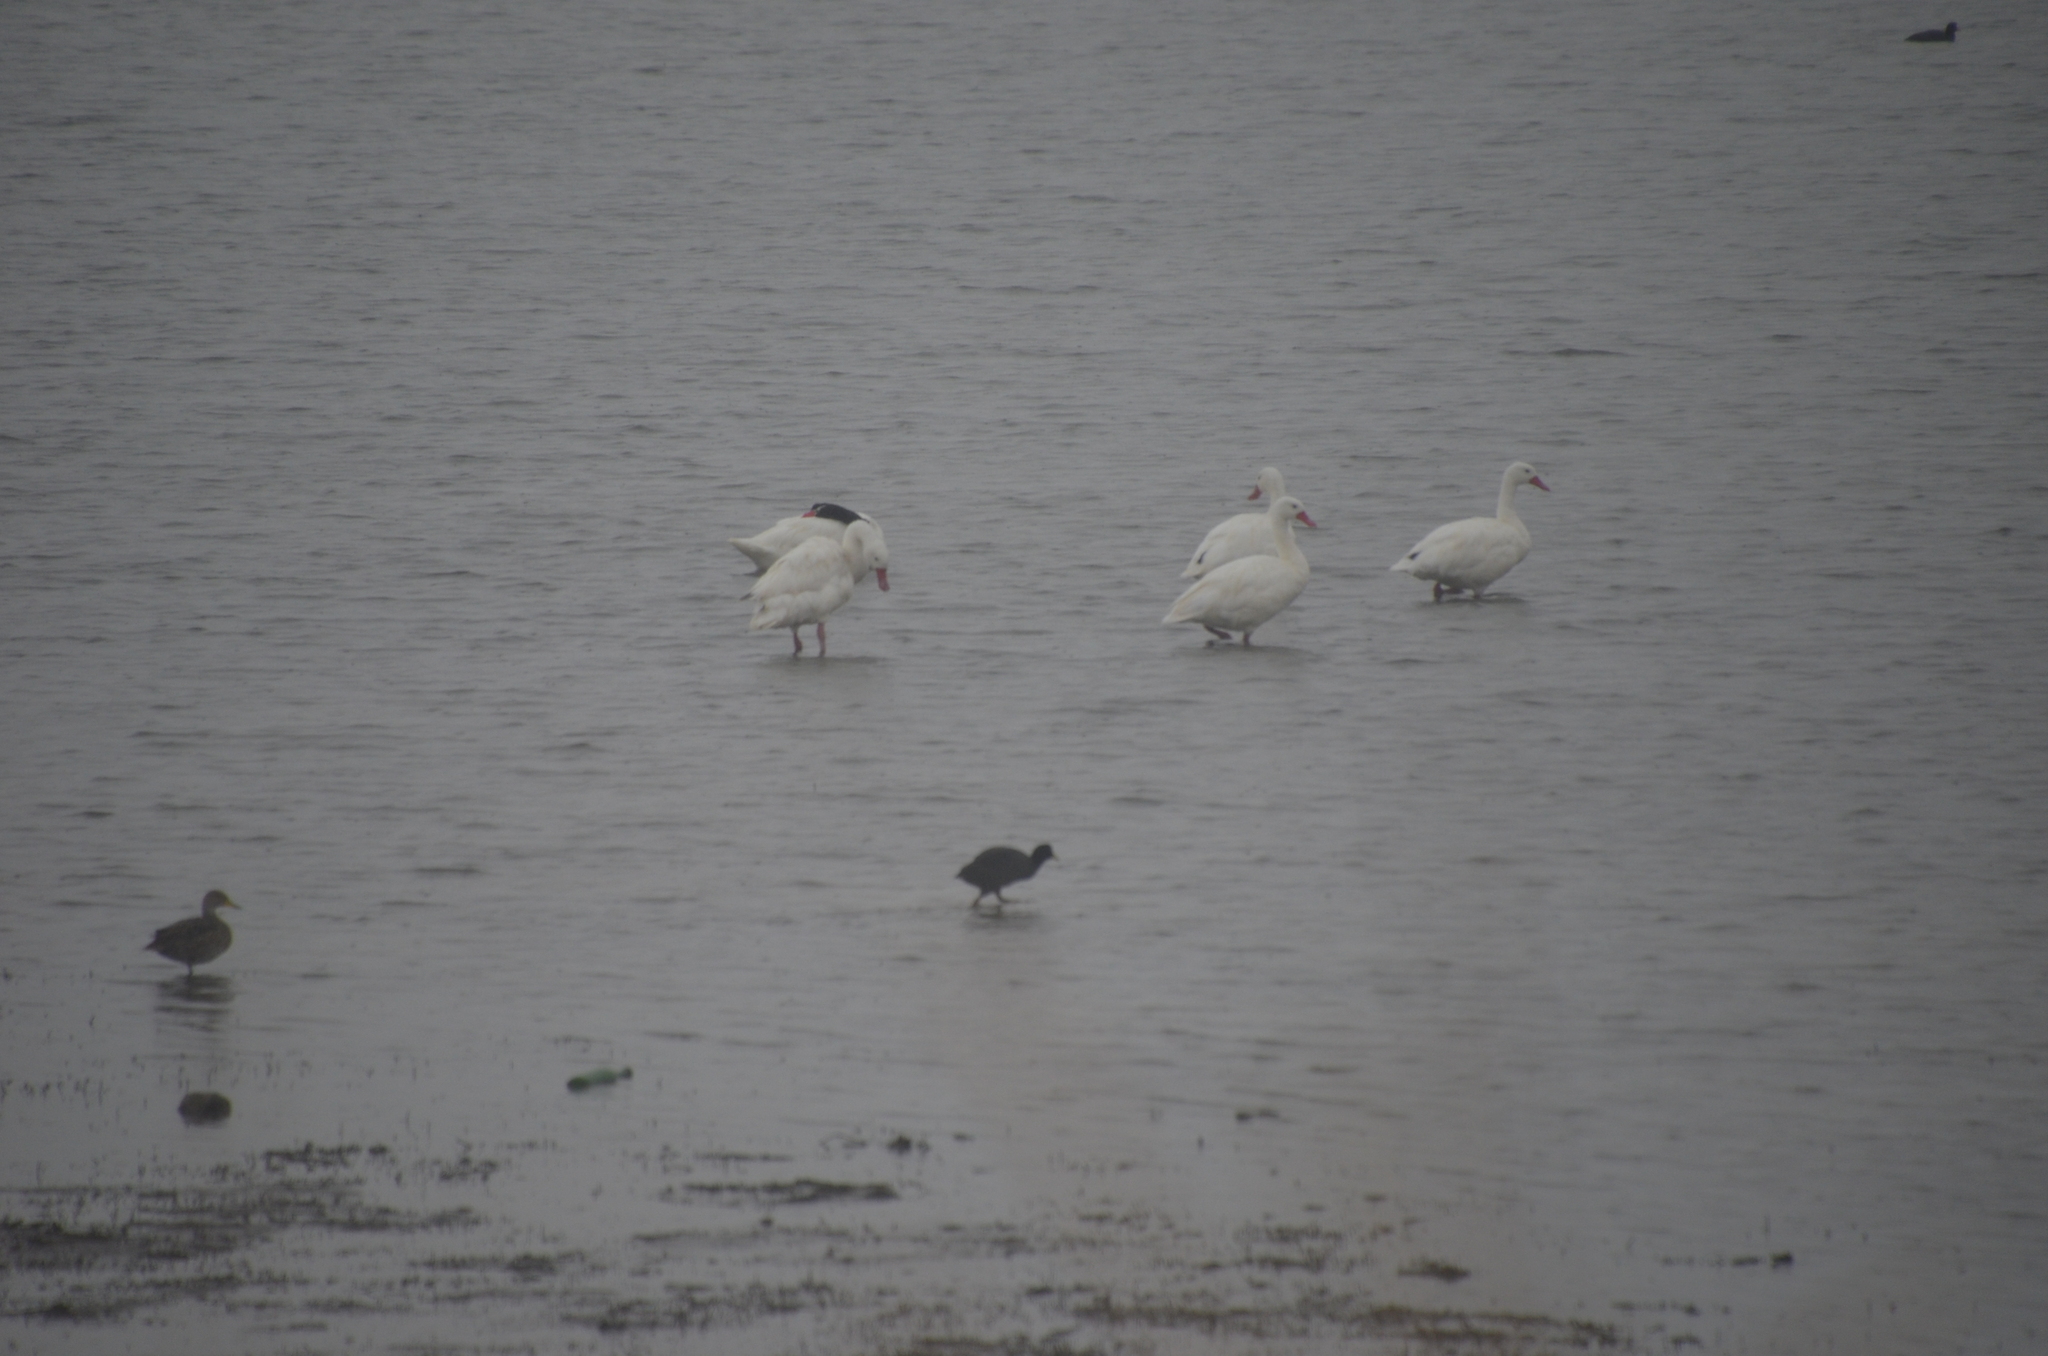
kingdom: Animalia
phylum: Chordata
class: Aves
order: Anseriformes
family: Anatidae
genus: Coscoroba
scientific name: Coscoroba coscoroba
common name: Coscoroba swan
